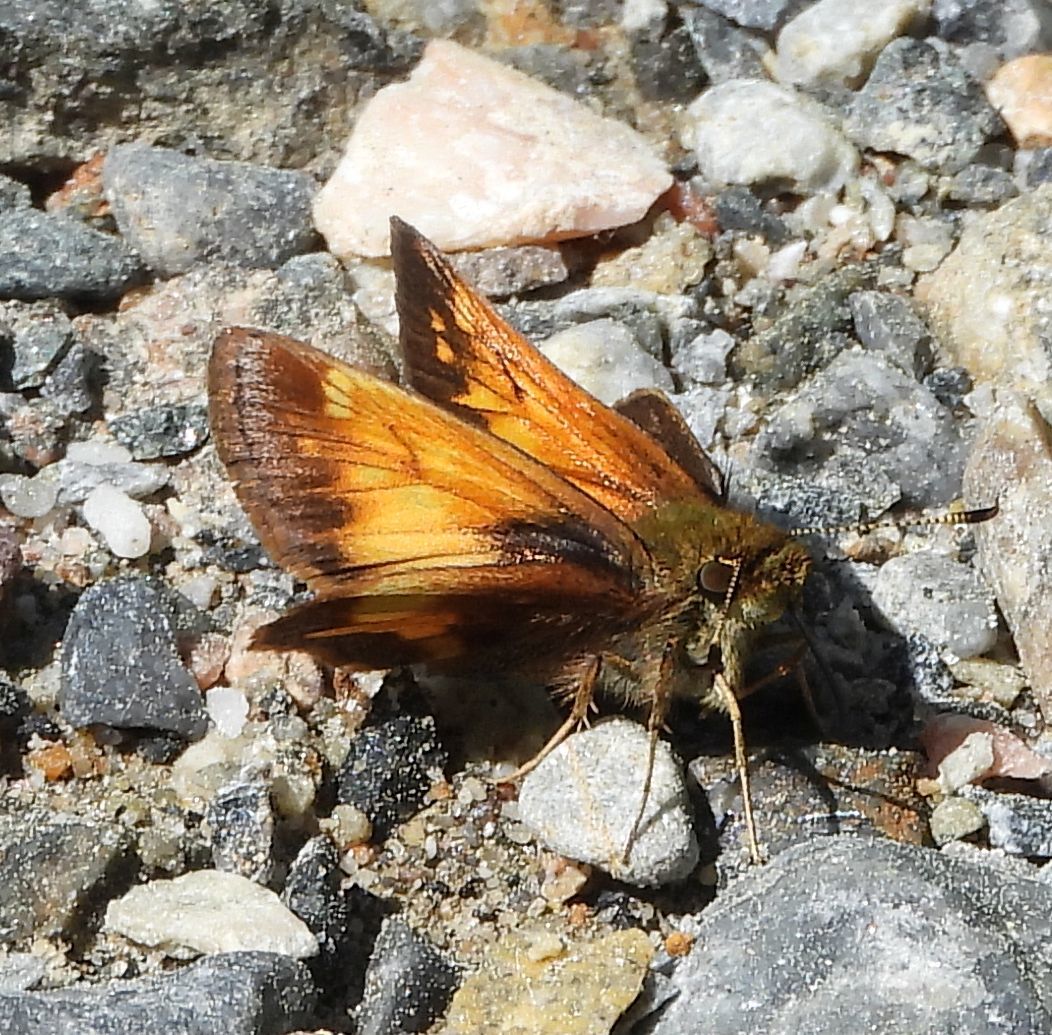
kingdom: Animalia
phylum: Arthropoda
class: Insecta
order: Lepidoptera
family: Hesperiidae
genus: Lon
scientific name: Lon hobomok
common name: Hobomok skipper
